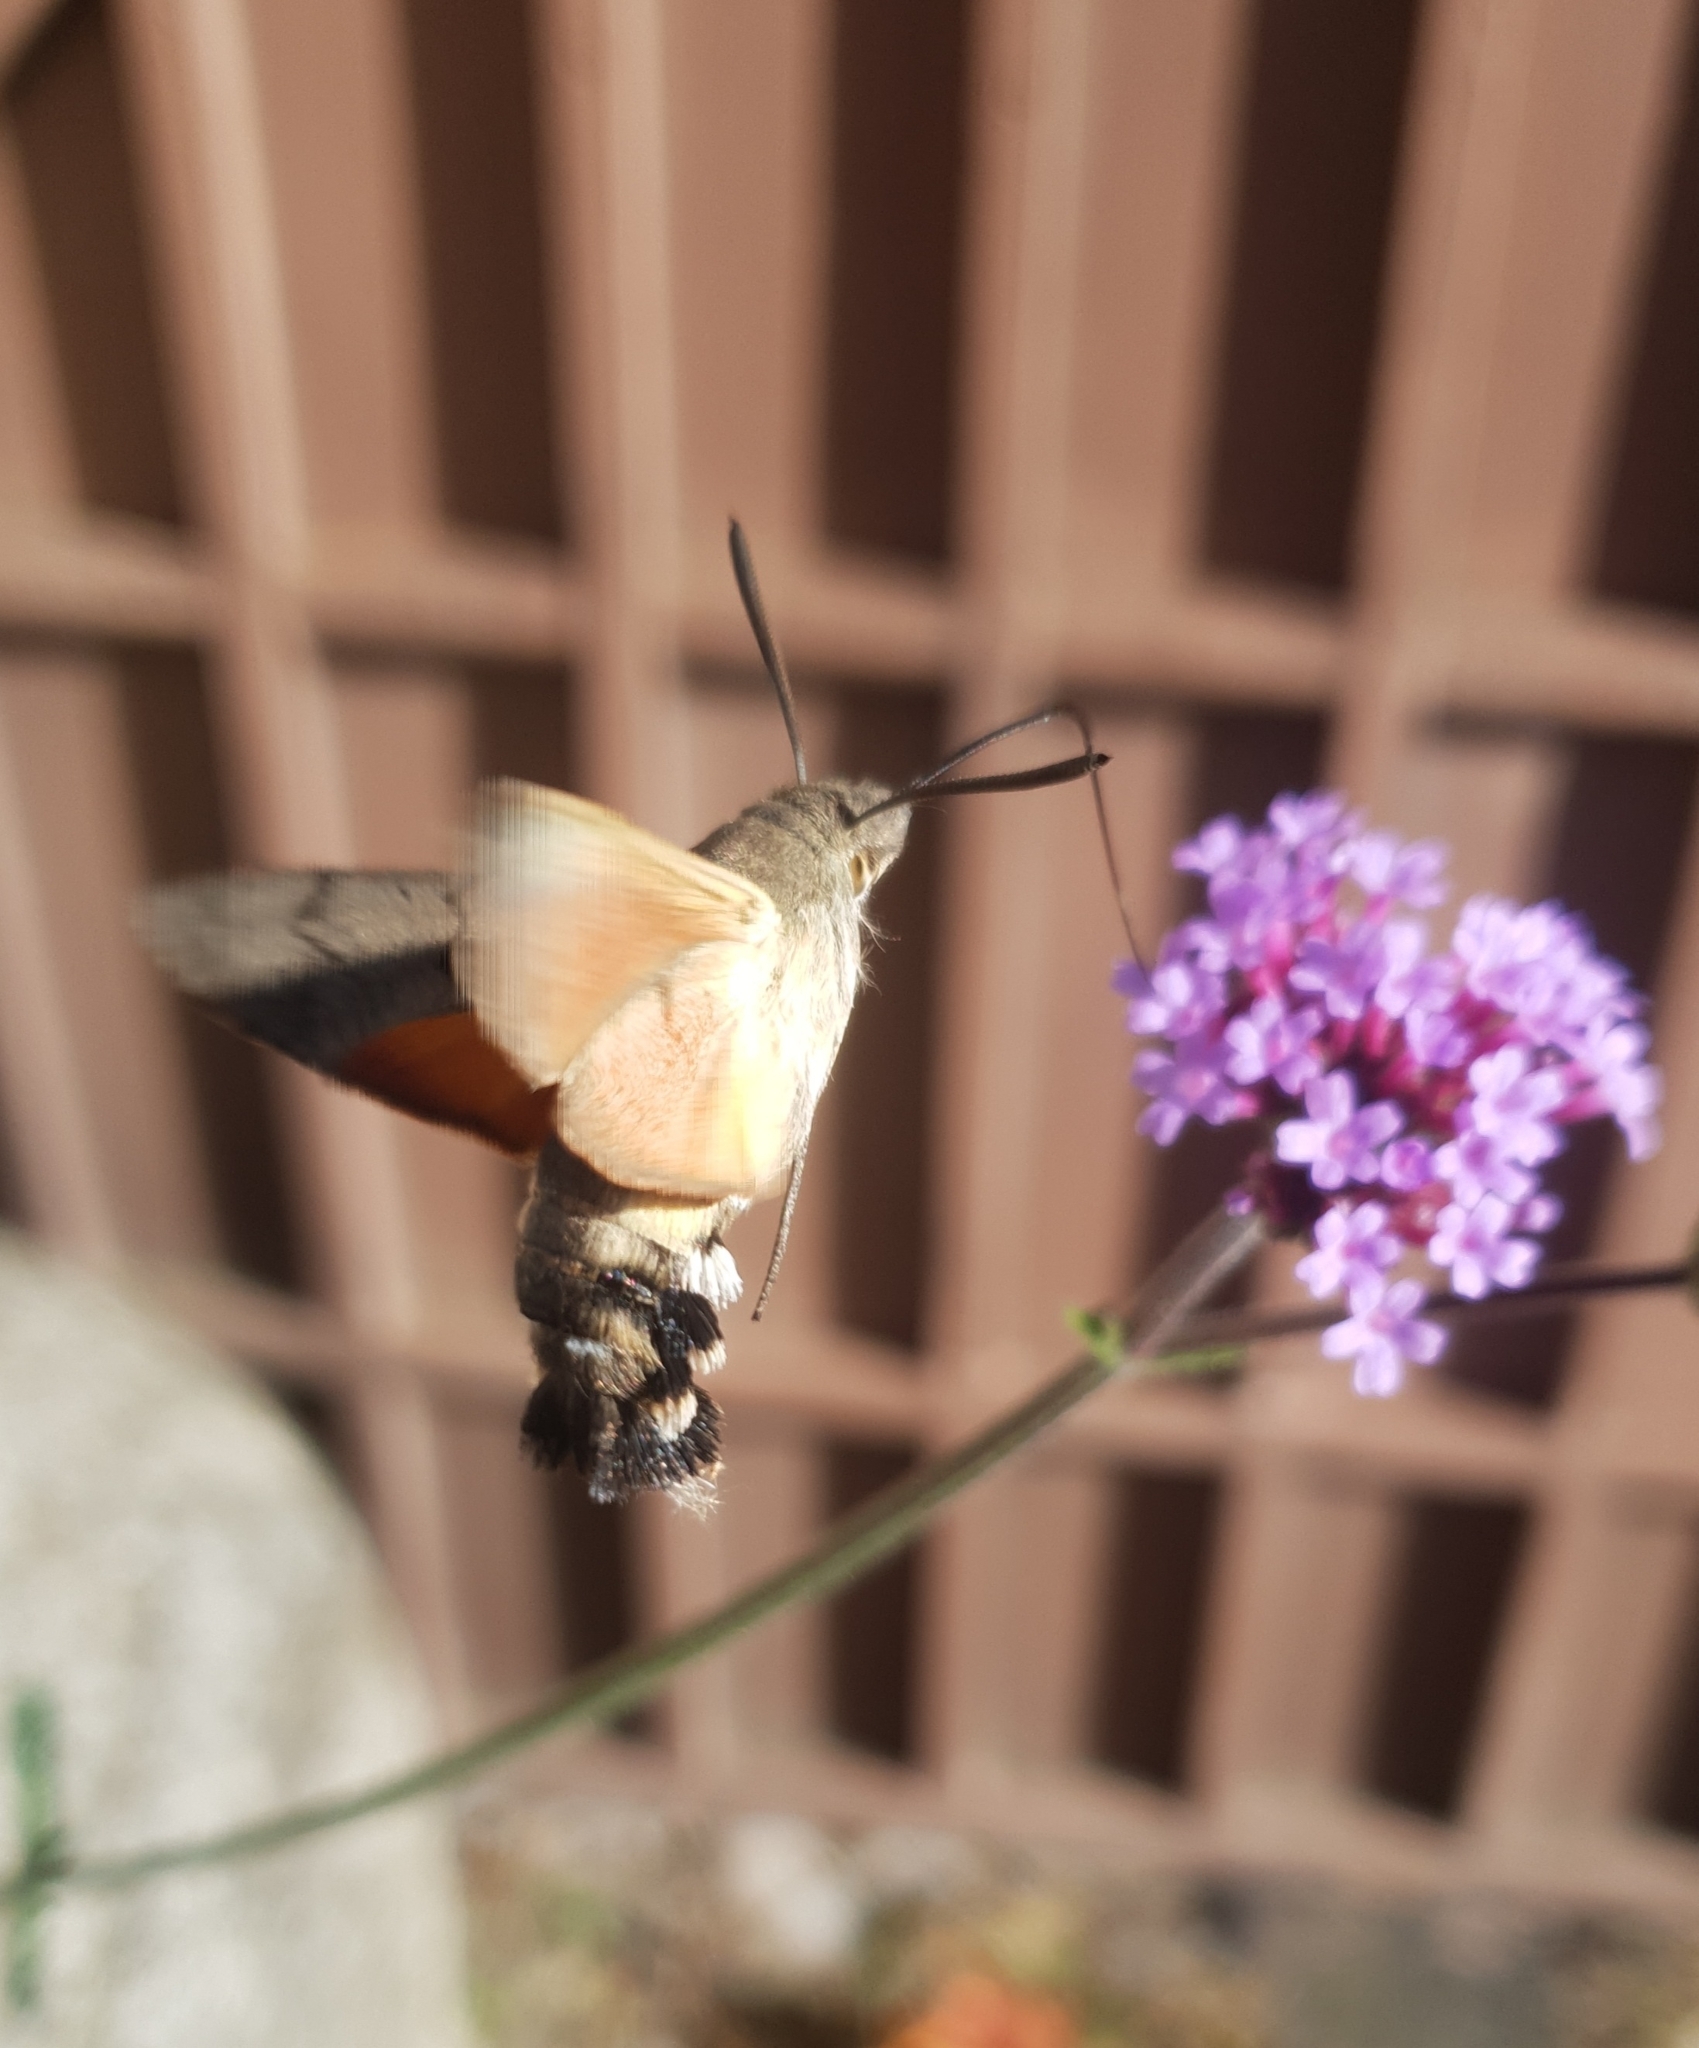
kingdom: Animalia
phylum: Arthropoda
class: Insecta
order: Lepidoptera
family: Sphingidae
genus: Macroglossum
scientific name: Macroglossum stellatarum
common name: Humming-bird hawk-moth
